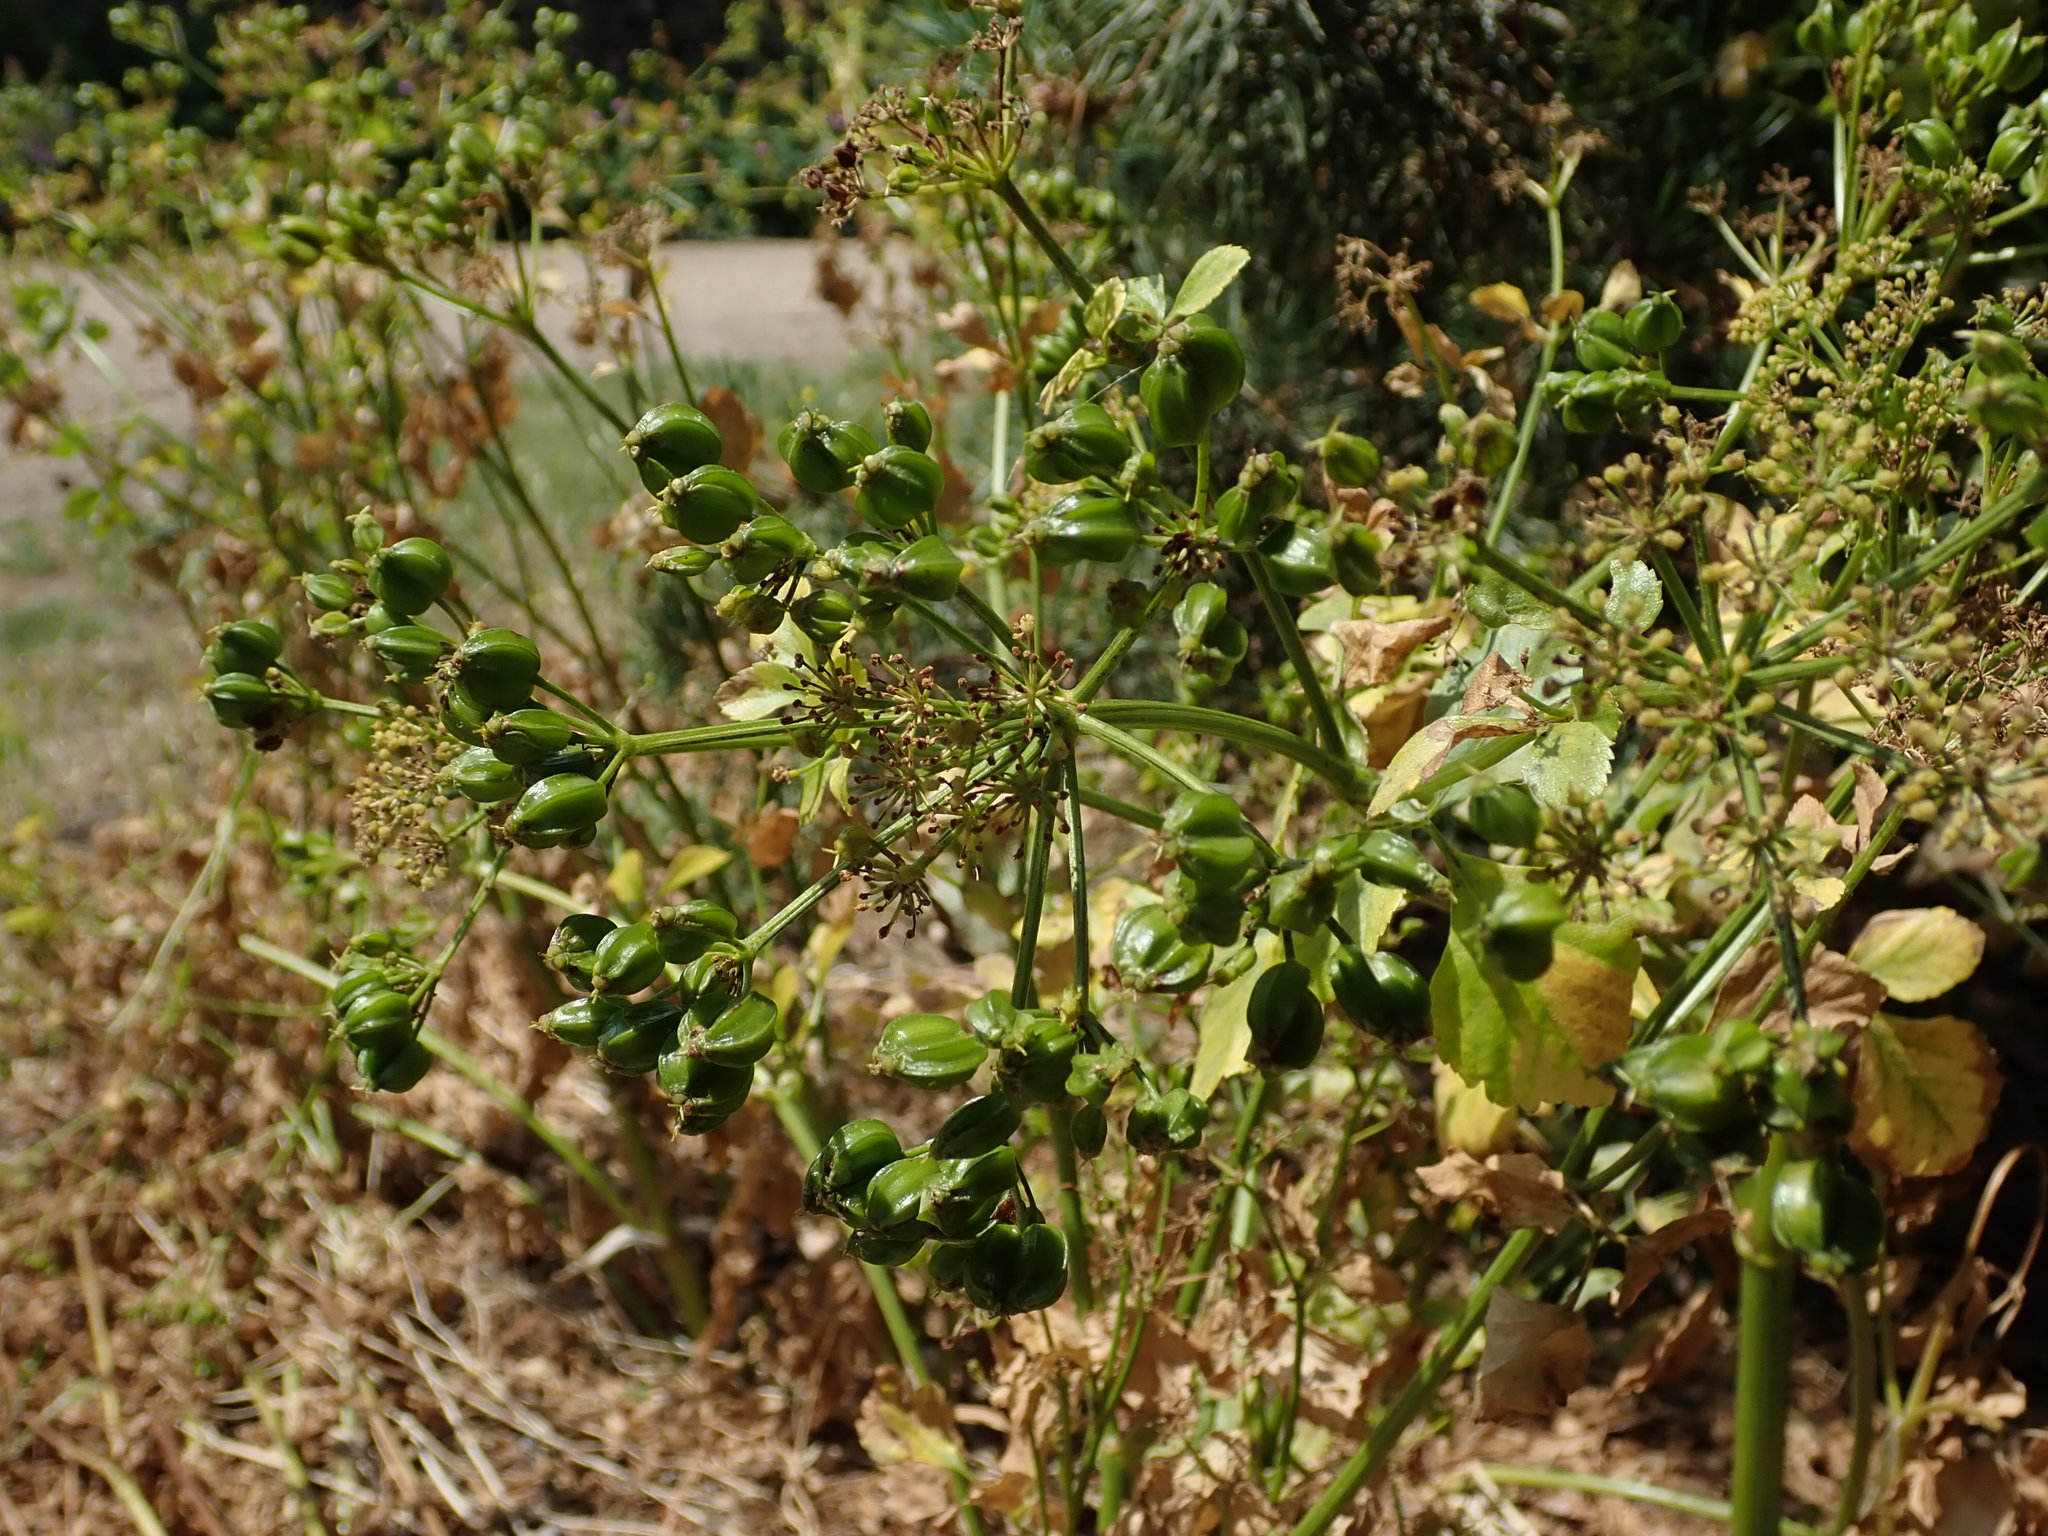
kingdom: Plantae
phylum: Tracheophyta
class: Magnoliopsida
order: Apiales
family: Apiaceae
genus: Smyrnium
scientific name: Smyrnium olusatrum
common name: Alexanders
